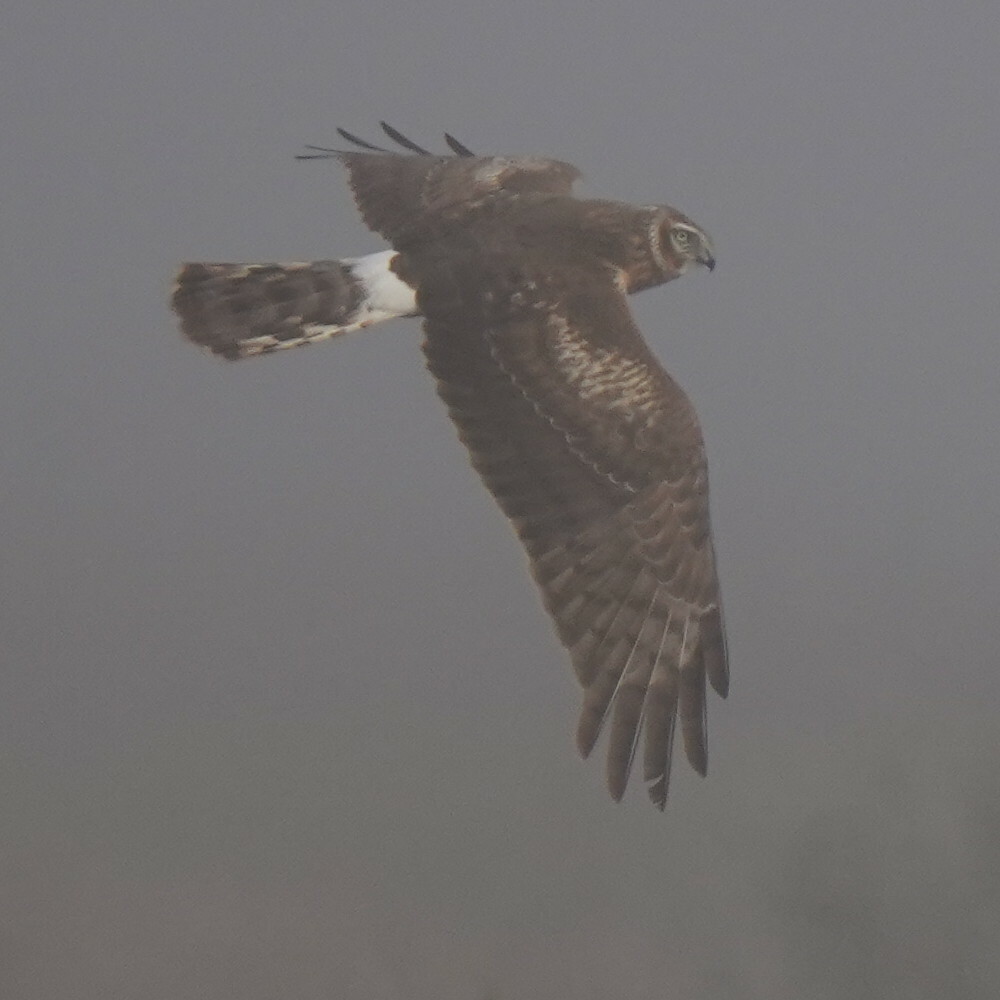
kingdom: Animalia
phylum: Chordata
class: Aves
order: Accipitriformes
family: Accipitridae
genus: Circus
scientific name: Circus cyaneus
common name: Hen harrier
